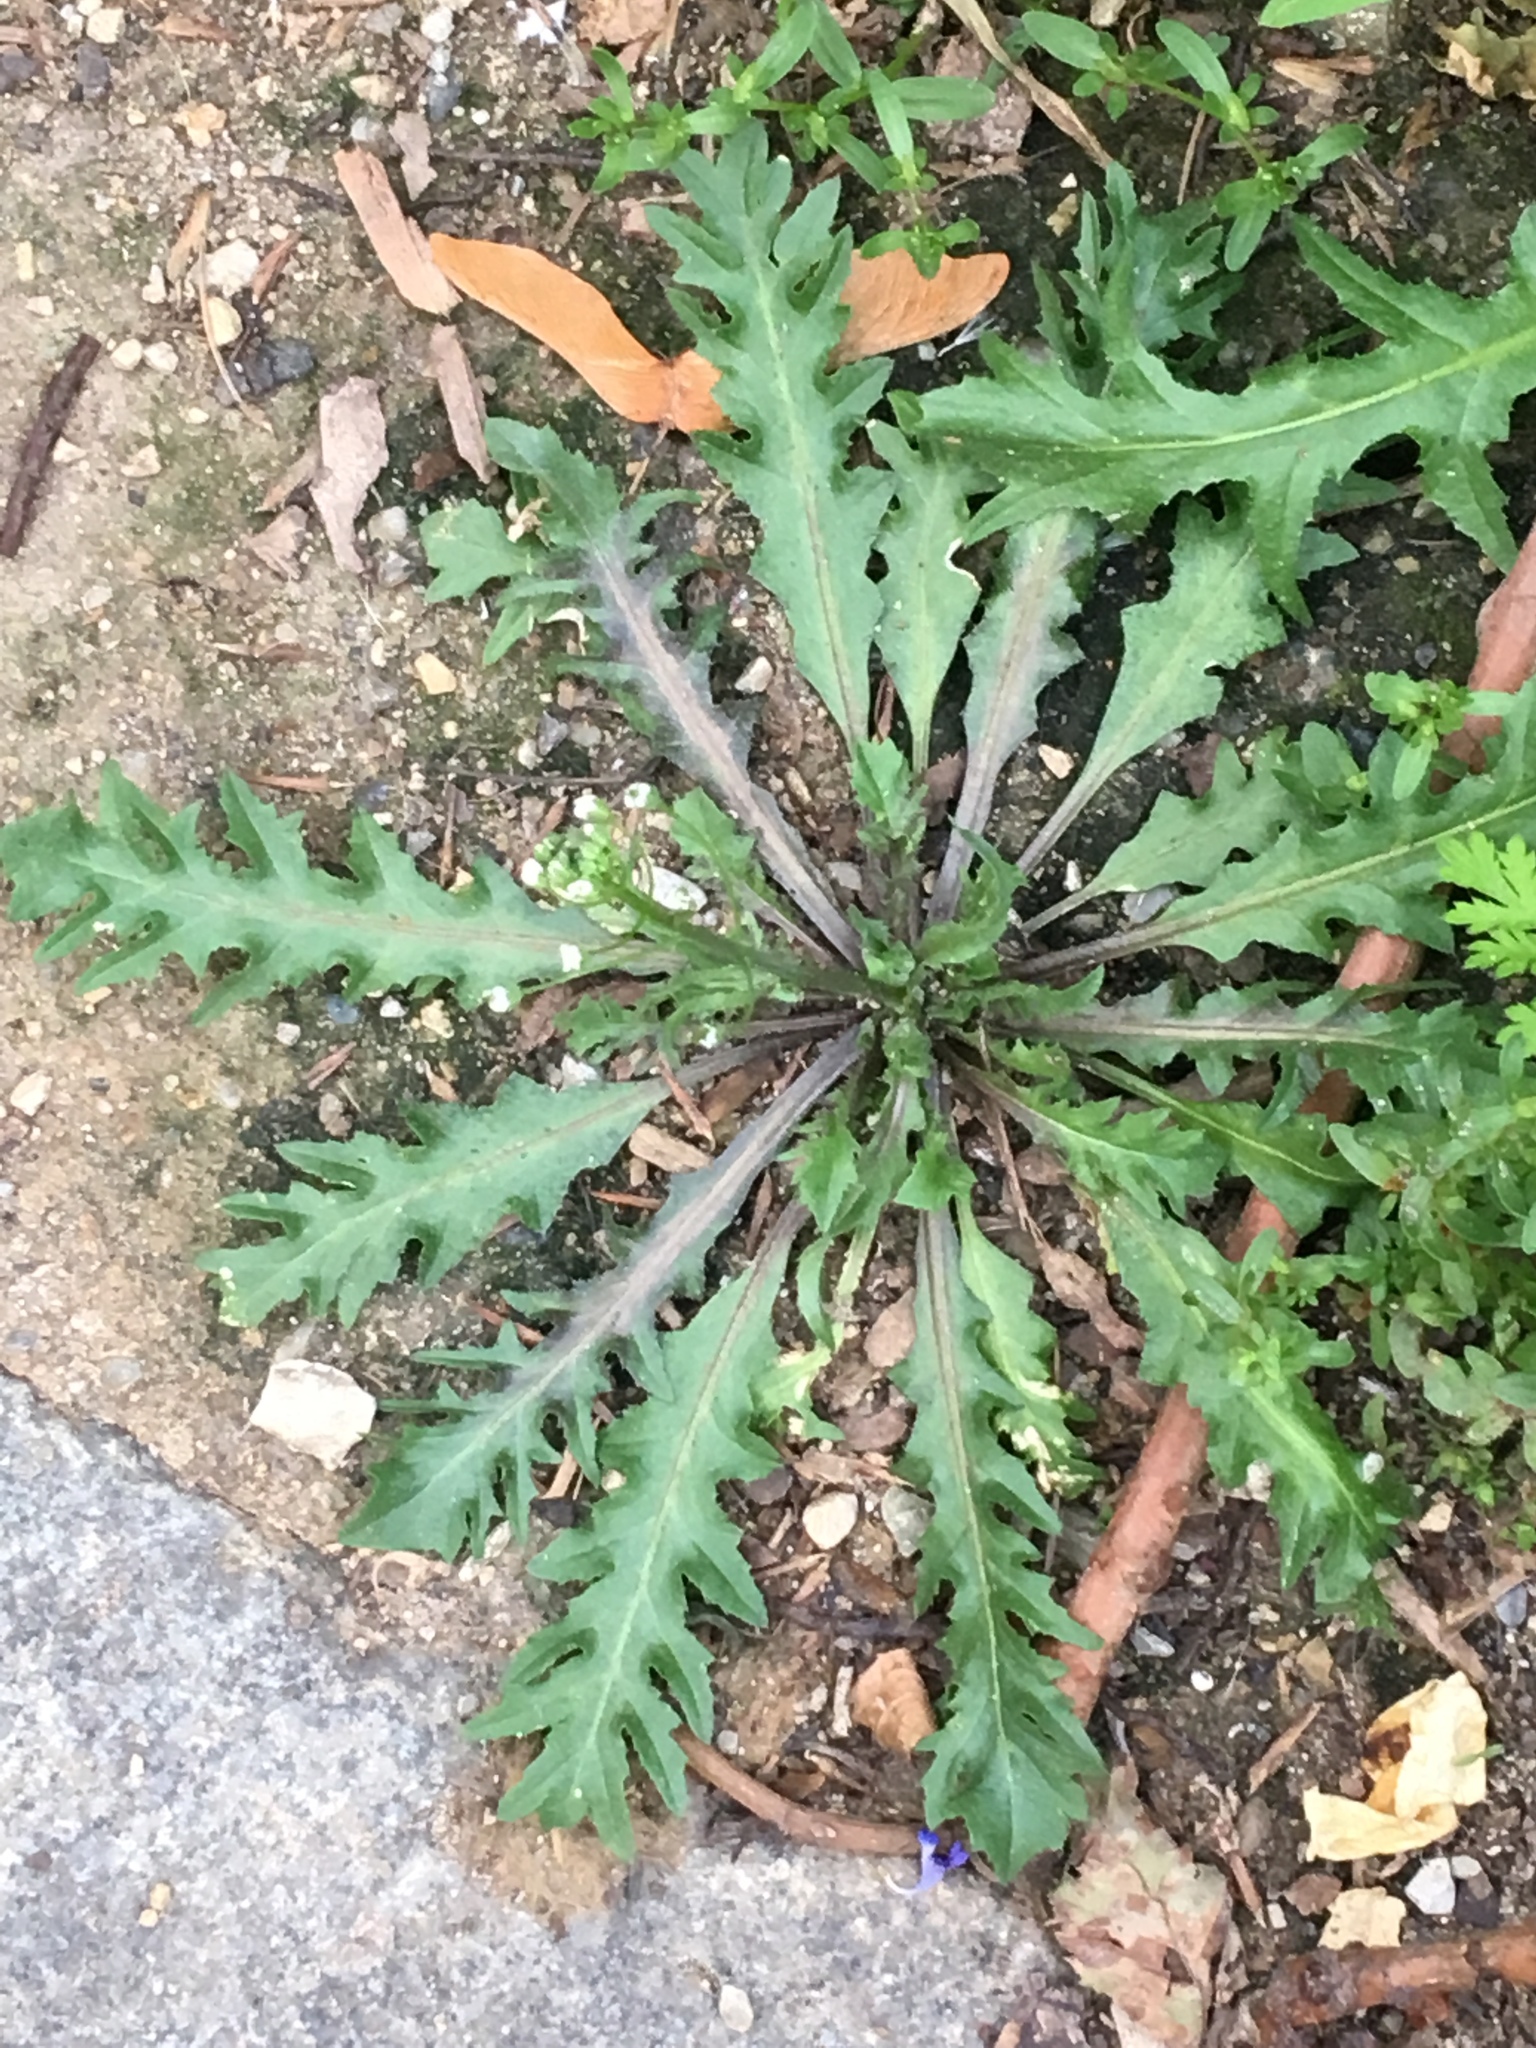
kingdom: Plantae
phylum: Tracheophyta
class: Magnoliopsida
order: Brassicales
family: Brassicaceae
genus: Capsella
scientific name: Capsella bursa-pastoris
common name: Shepherd's purse
